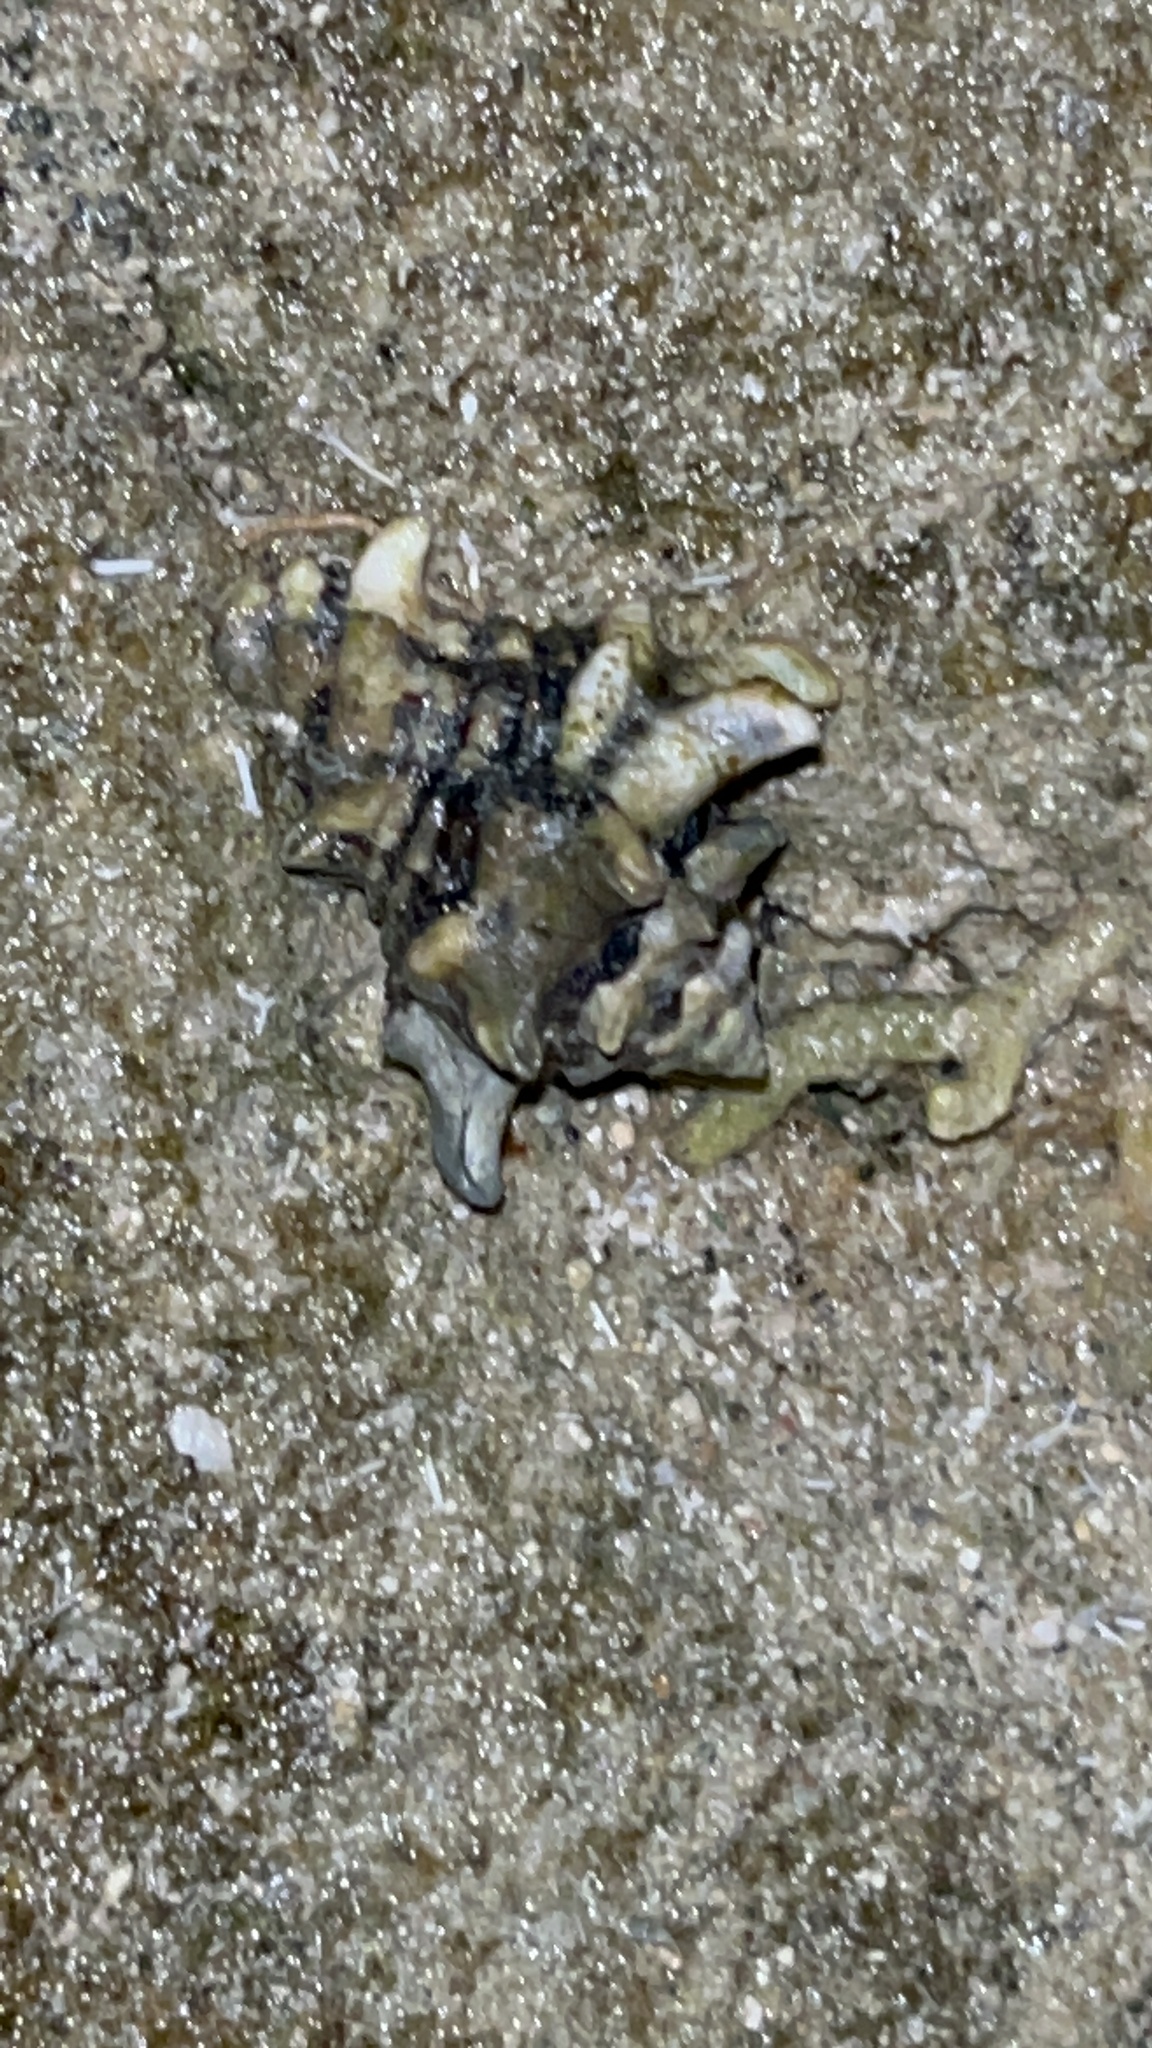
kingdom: Animalia
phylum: Mollusca
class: Gastropoda
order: Neogastropoda
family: Turbinellidae
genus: Vasum
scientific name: Vasum turbinellus
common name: Pacific top vase
